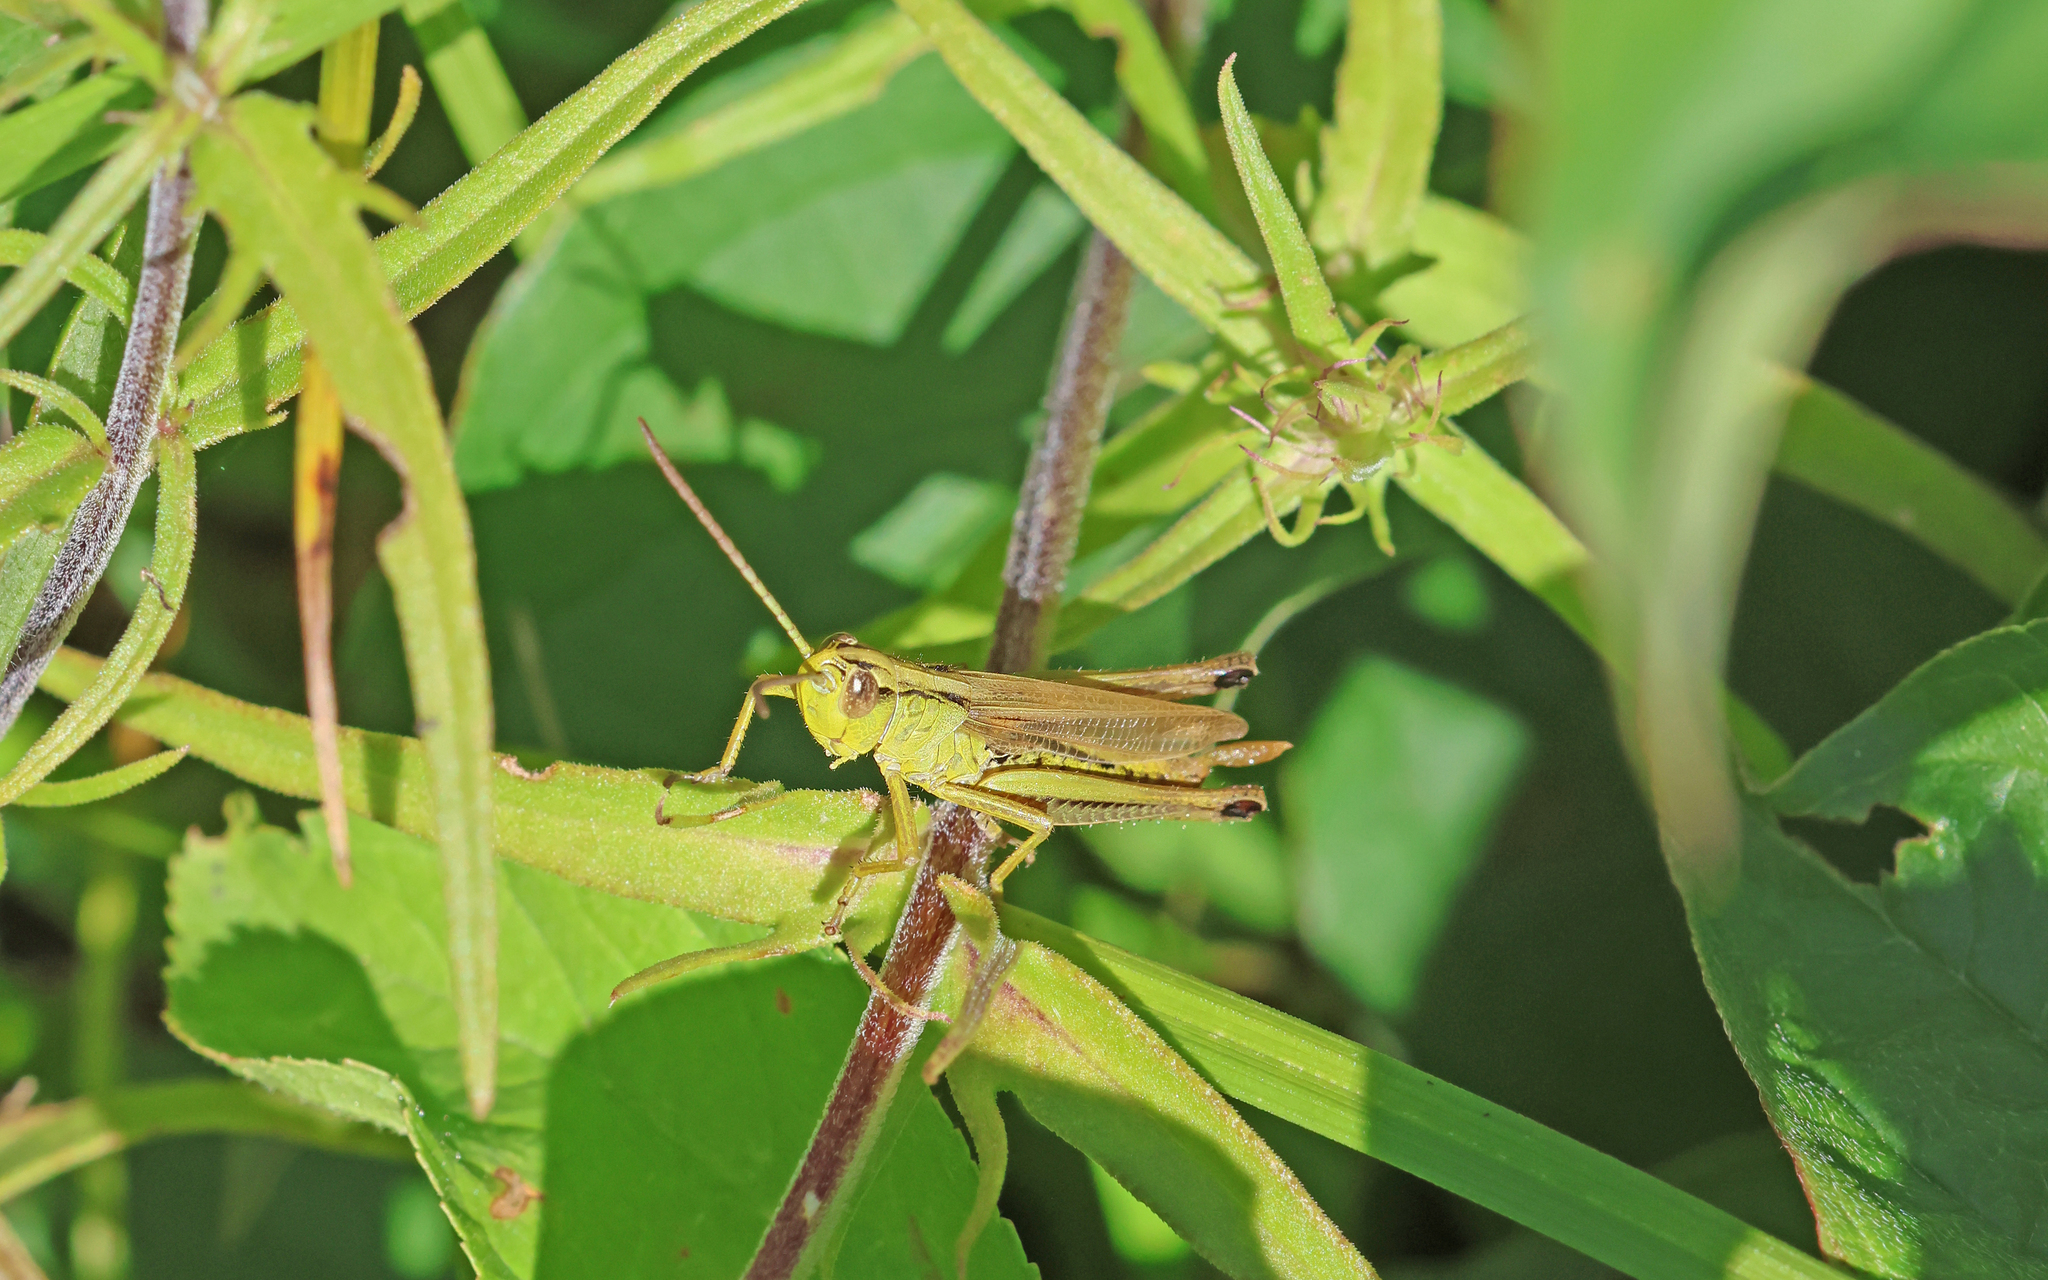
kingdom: Animalia
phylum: Arthropoda
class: Insecta
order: Orthoptera
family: Acrididae
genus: Pseudochorthippus
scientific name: Pseudochorthippus parallelus
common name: Meadow grasshopper
